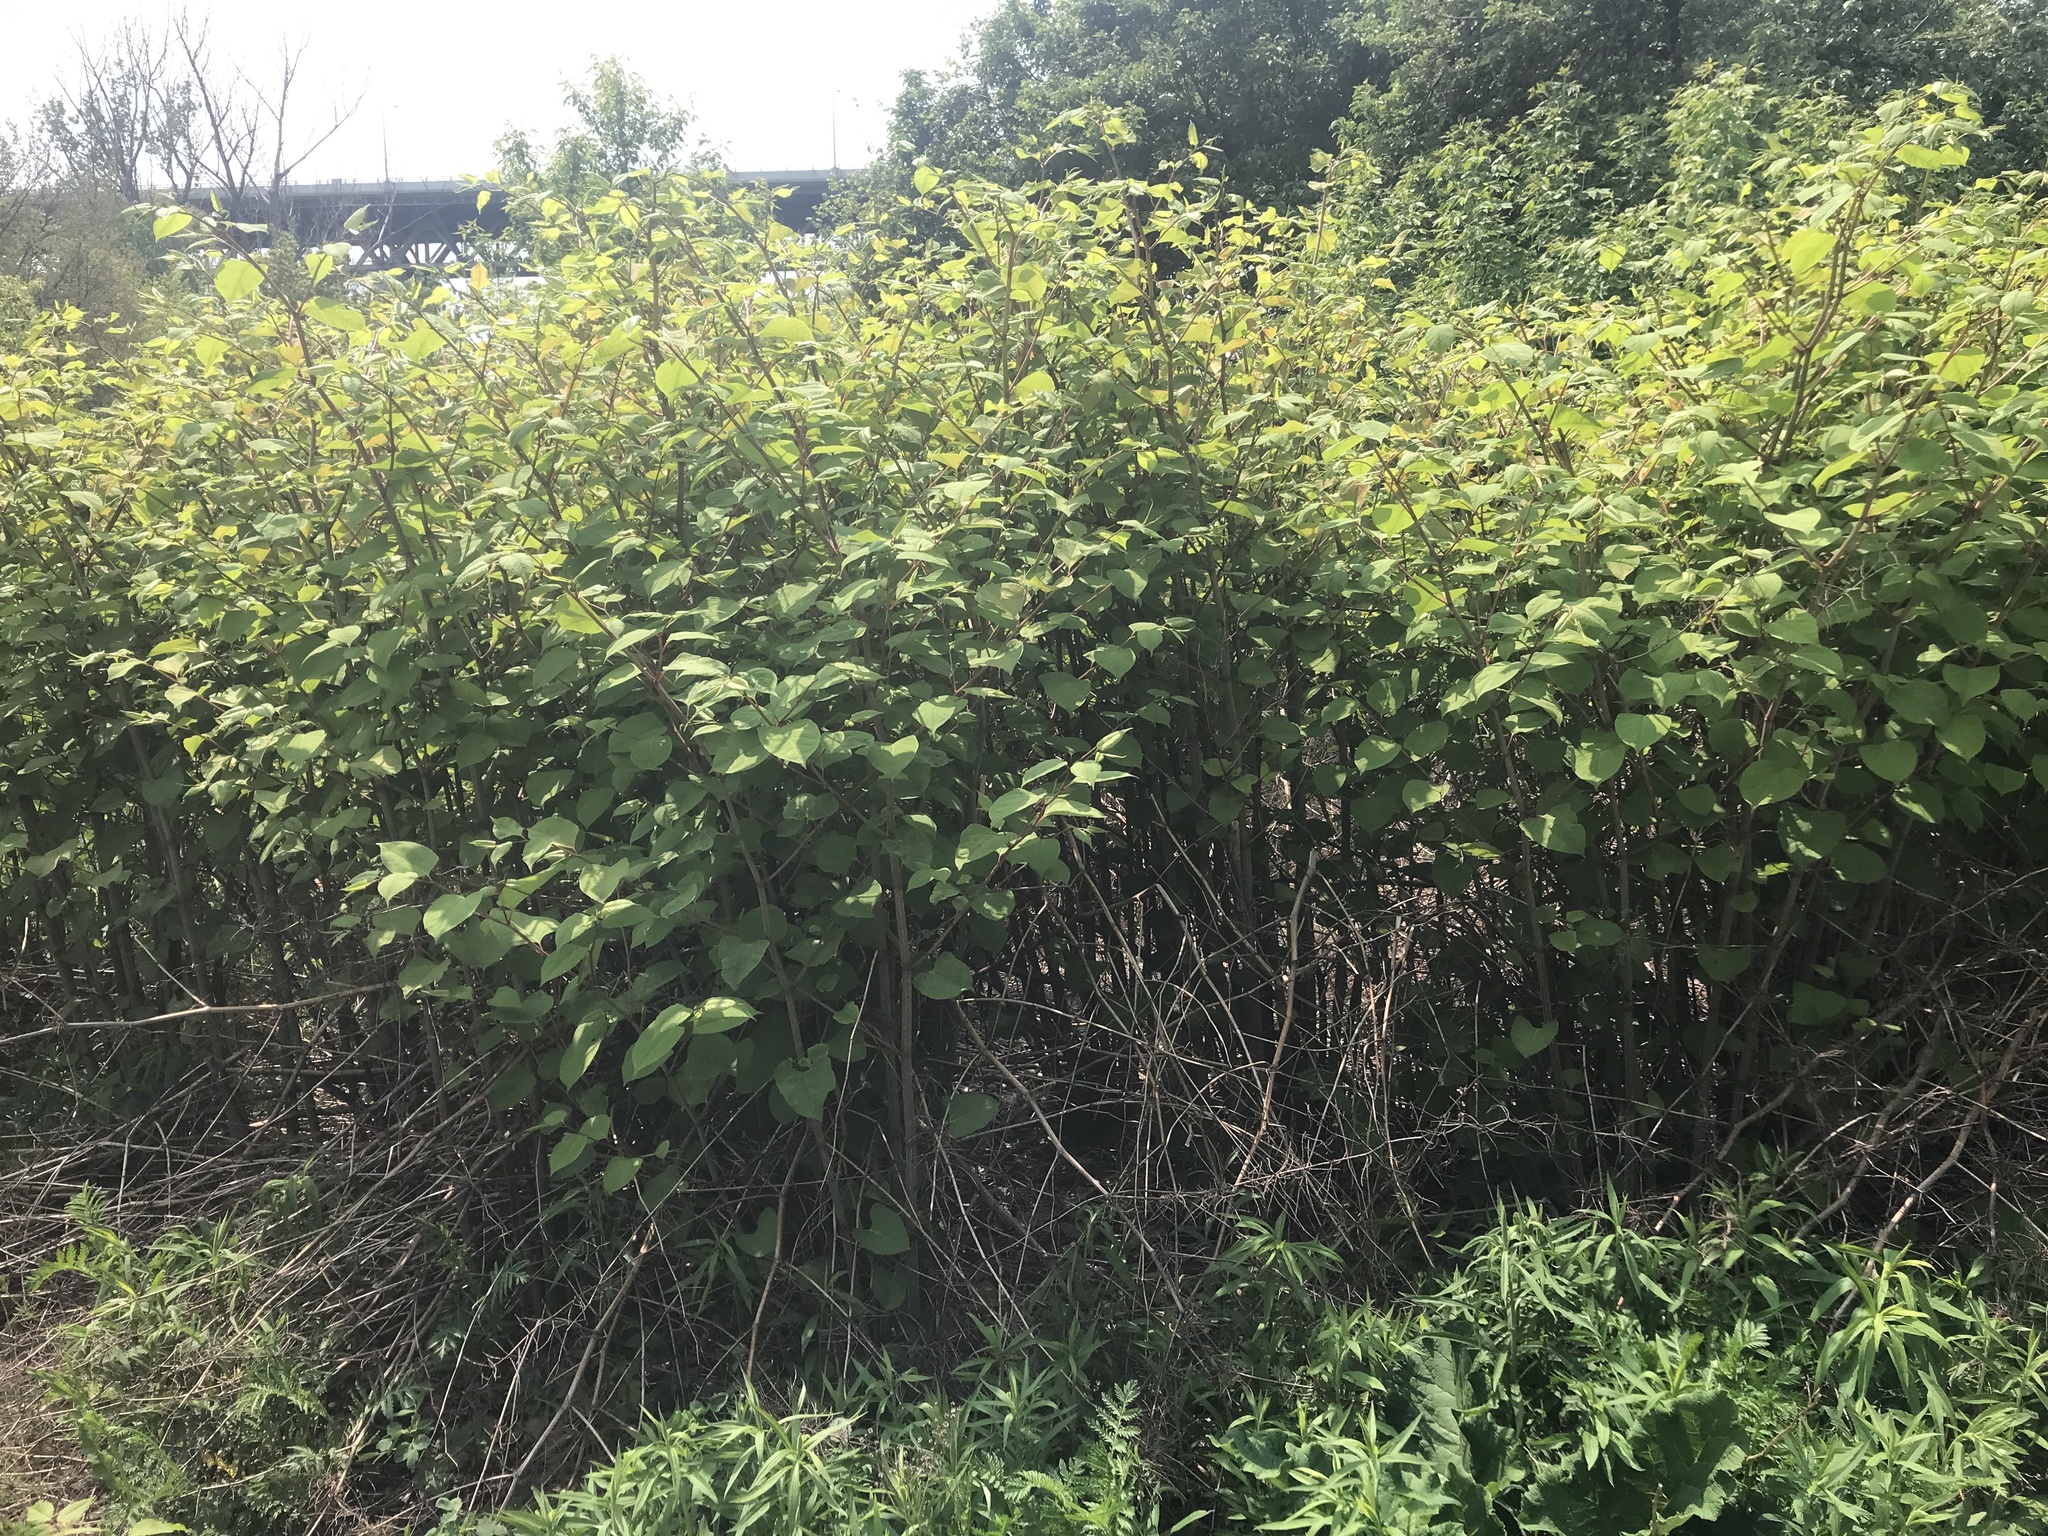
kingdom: Plantae
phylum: Tracheophyta
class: Magnoliopsida
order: Caryophyllales
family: Polygonaceae
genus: Reynoutria
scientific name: Reynoutria japonica
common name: Japanese knotweed
